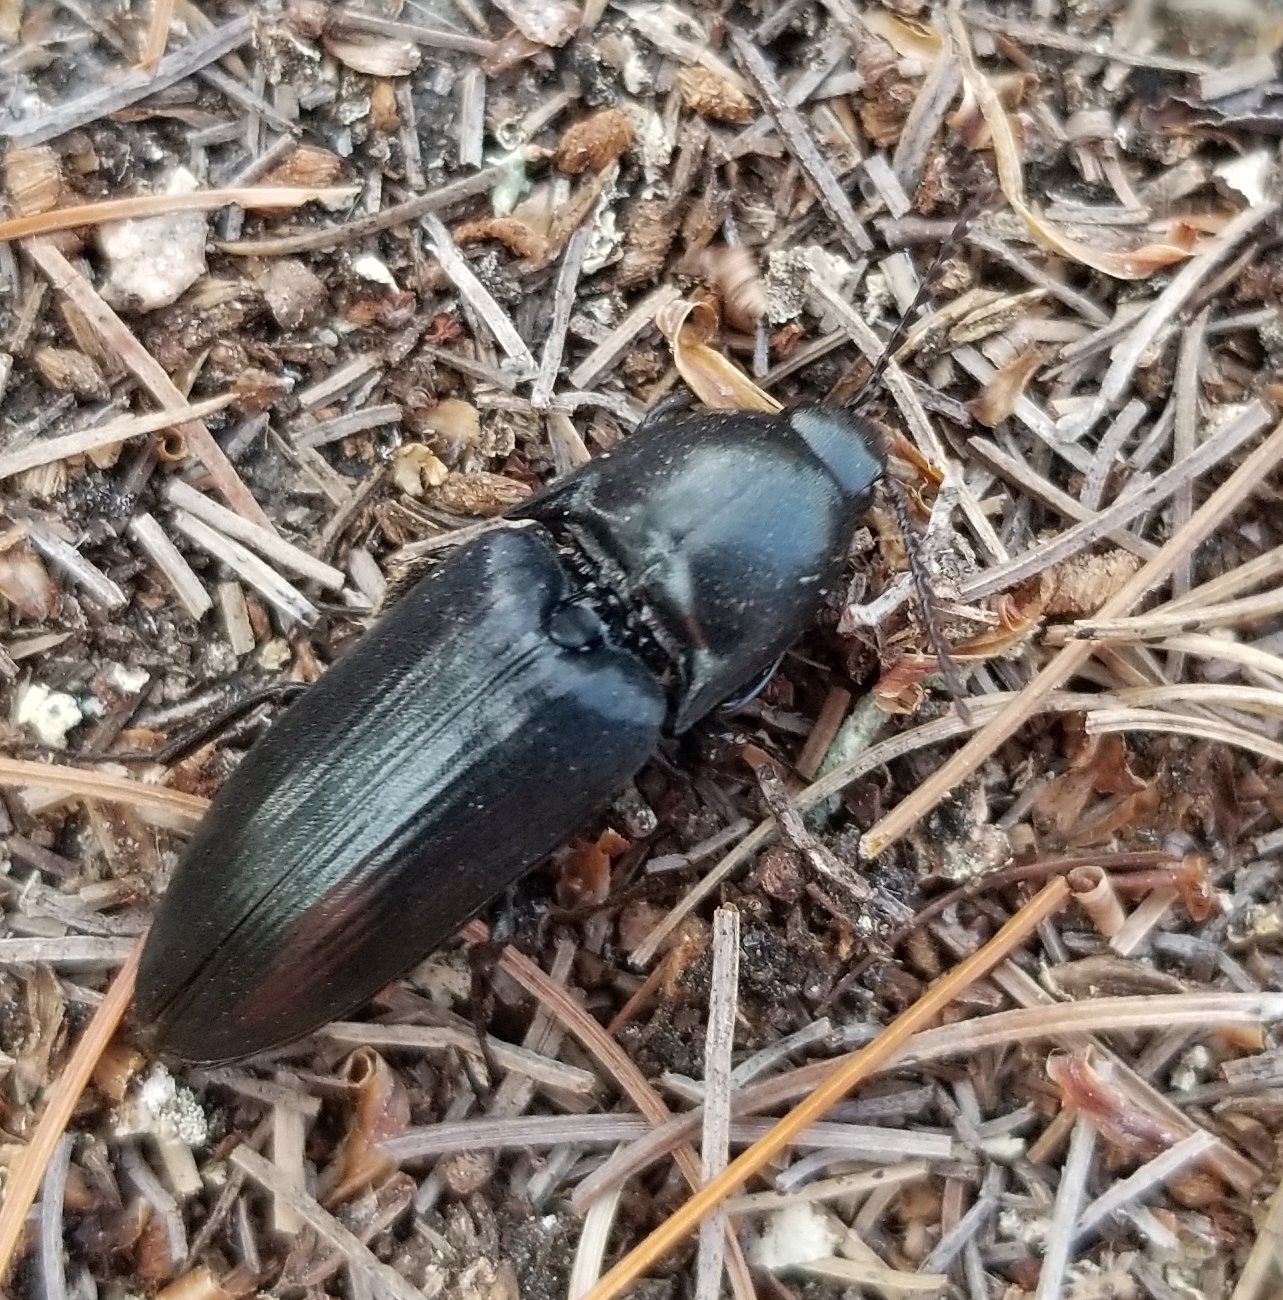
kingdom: Animalia
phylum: Arthropoda
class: Insecta
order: Coleoptera
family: Elateridae
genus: Elater
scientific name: Elater abruptus
